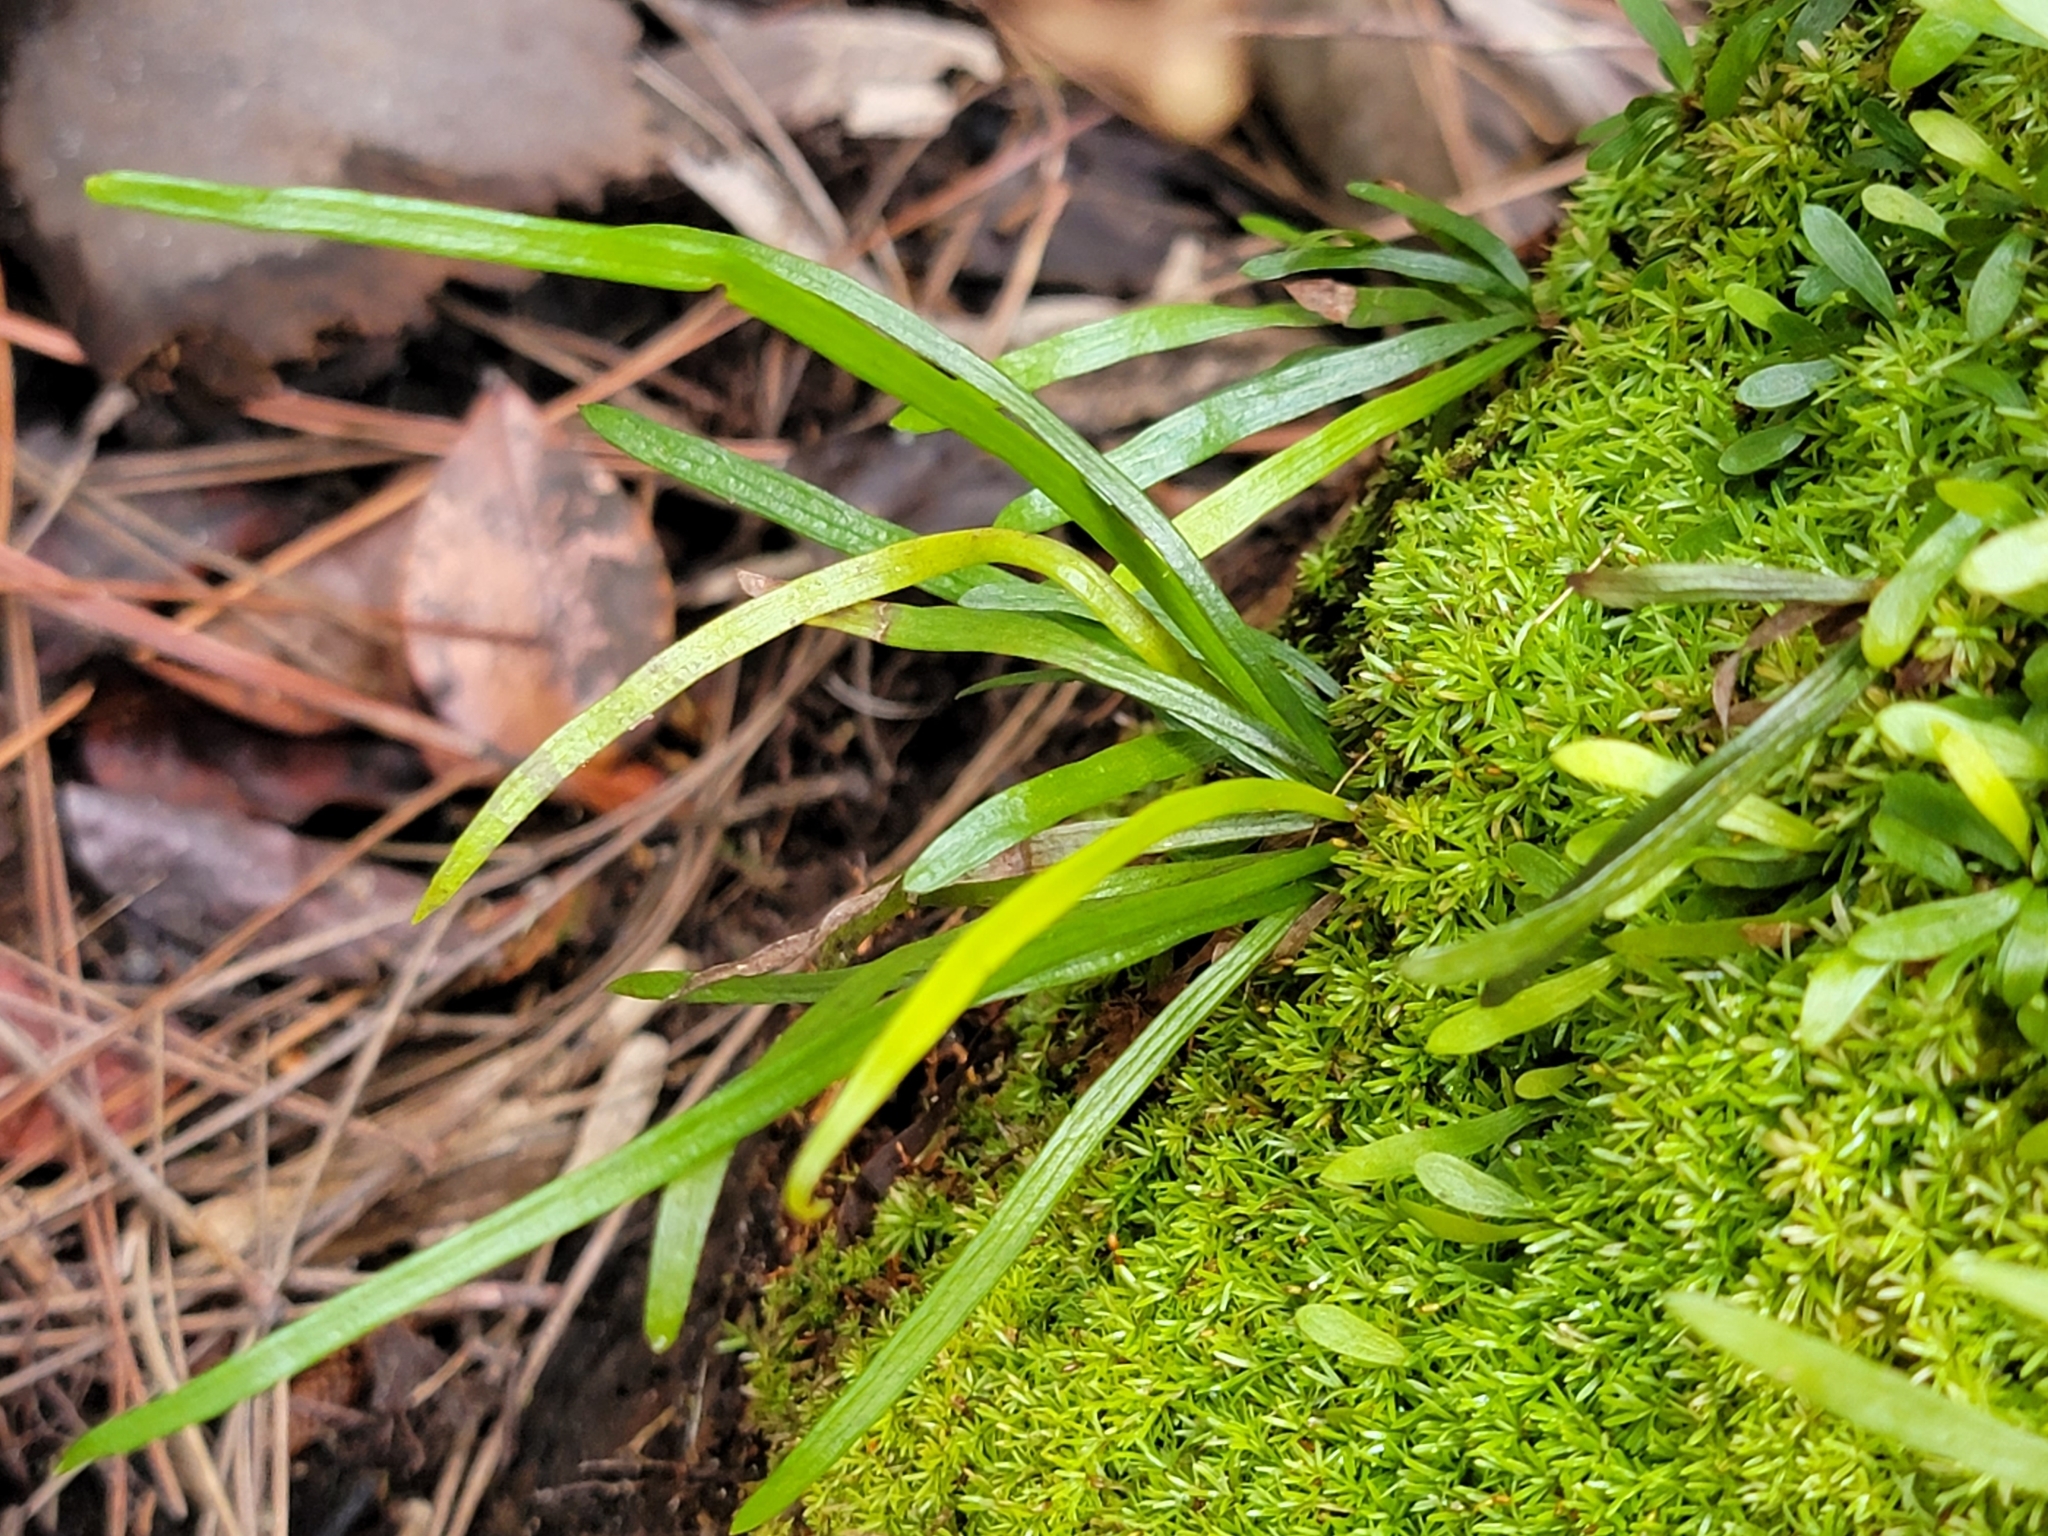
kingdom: Plantae
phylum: Tracheophyta
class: Polypodiopsida
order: Polypodiales
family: Pteridaceae
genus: Vittaria
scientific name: Vittaria lineata
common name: Shoestring fern
